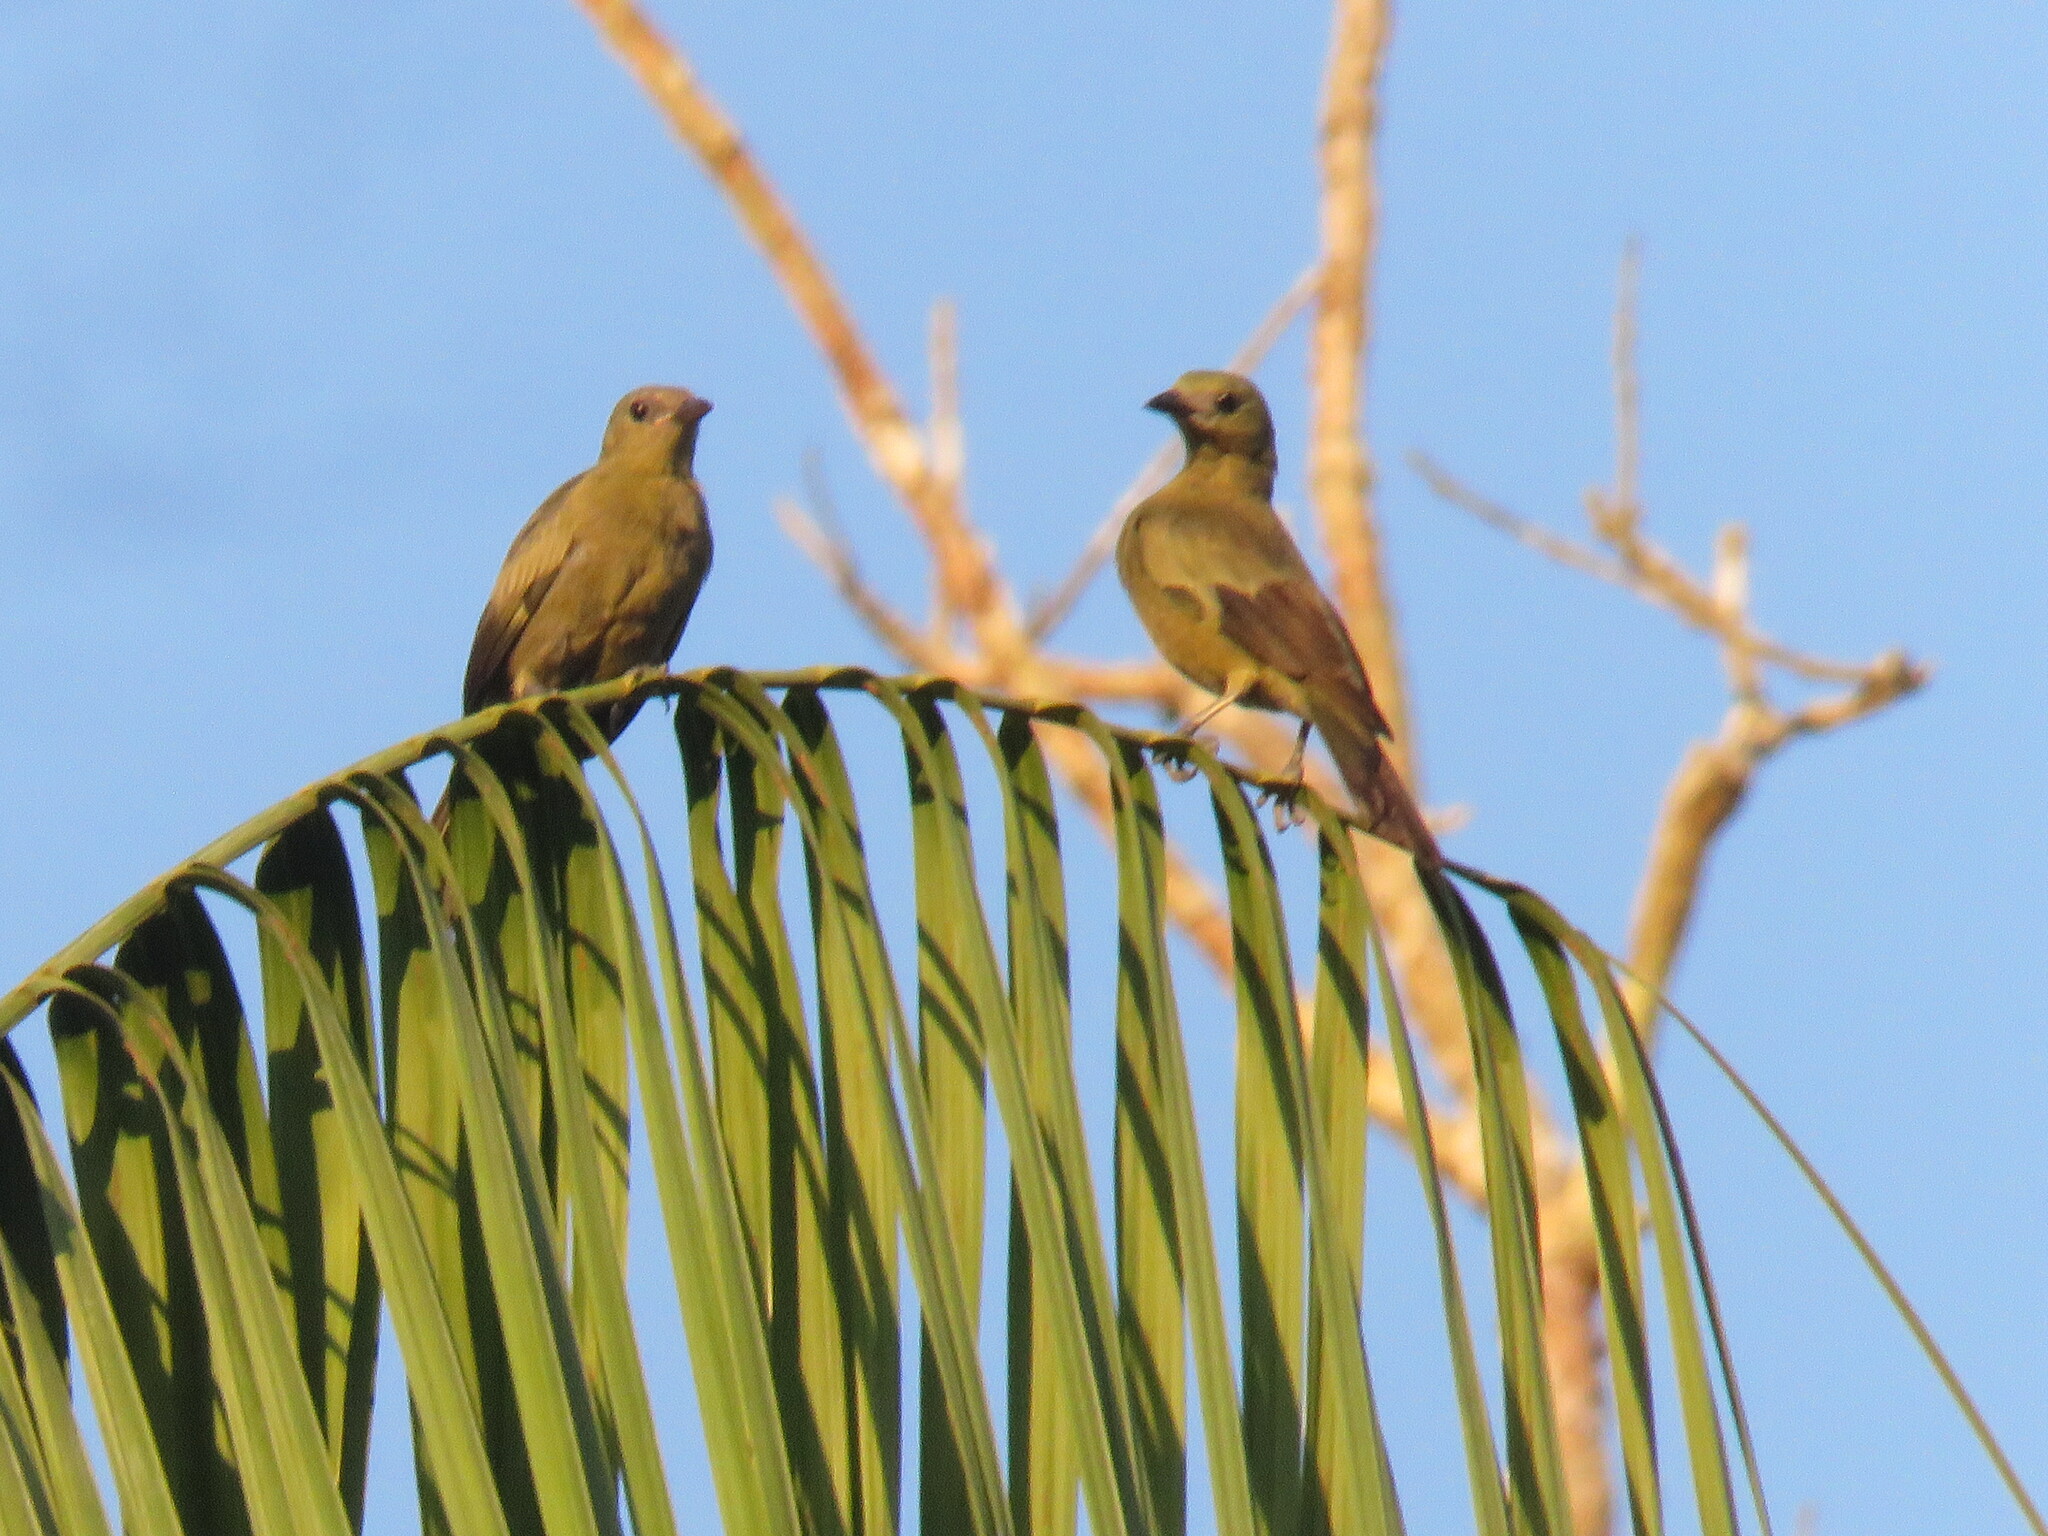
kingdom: Animalia
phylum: Chordata
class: Aves
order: Passeriformes
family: Thraupidae
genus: Thraupis
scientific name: Thraupis palmarum
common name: Palm tanager
